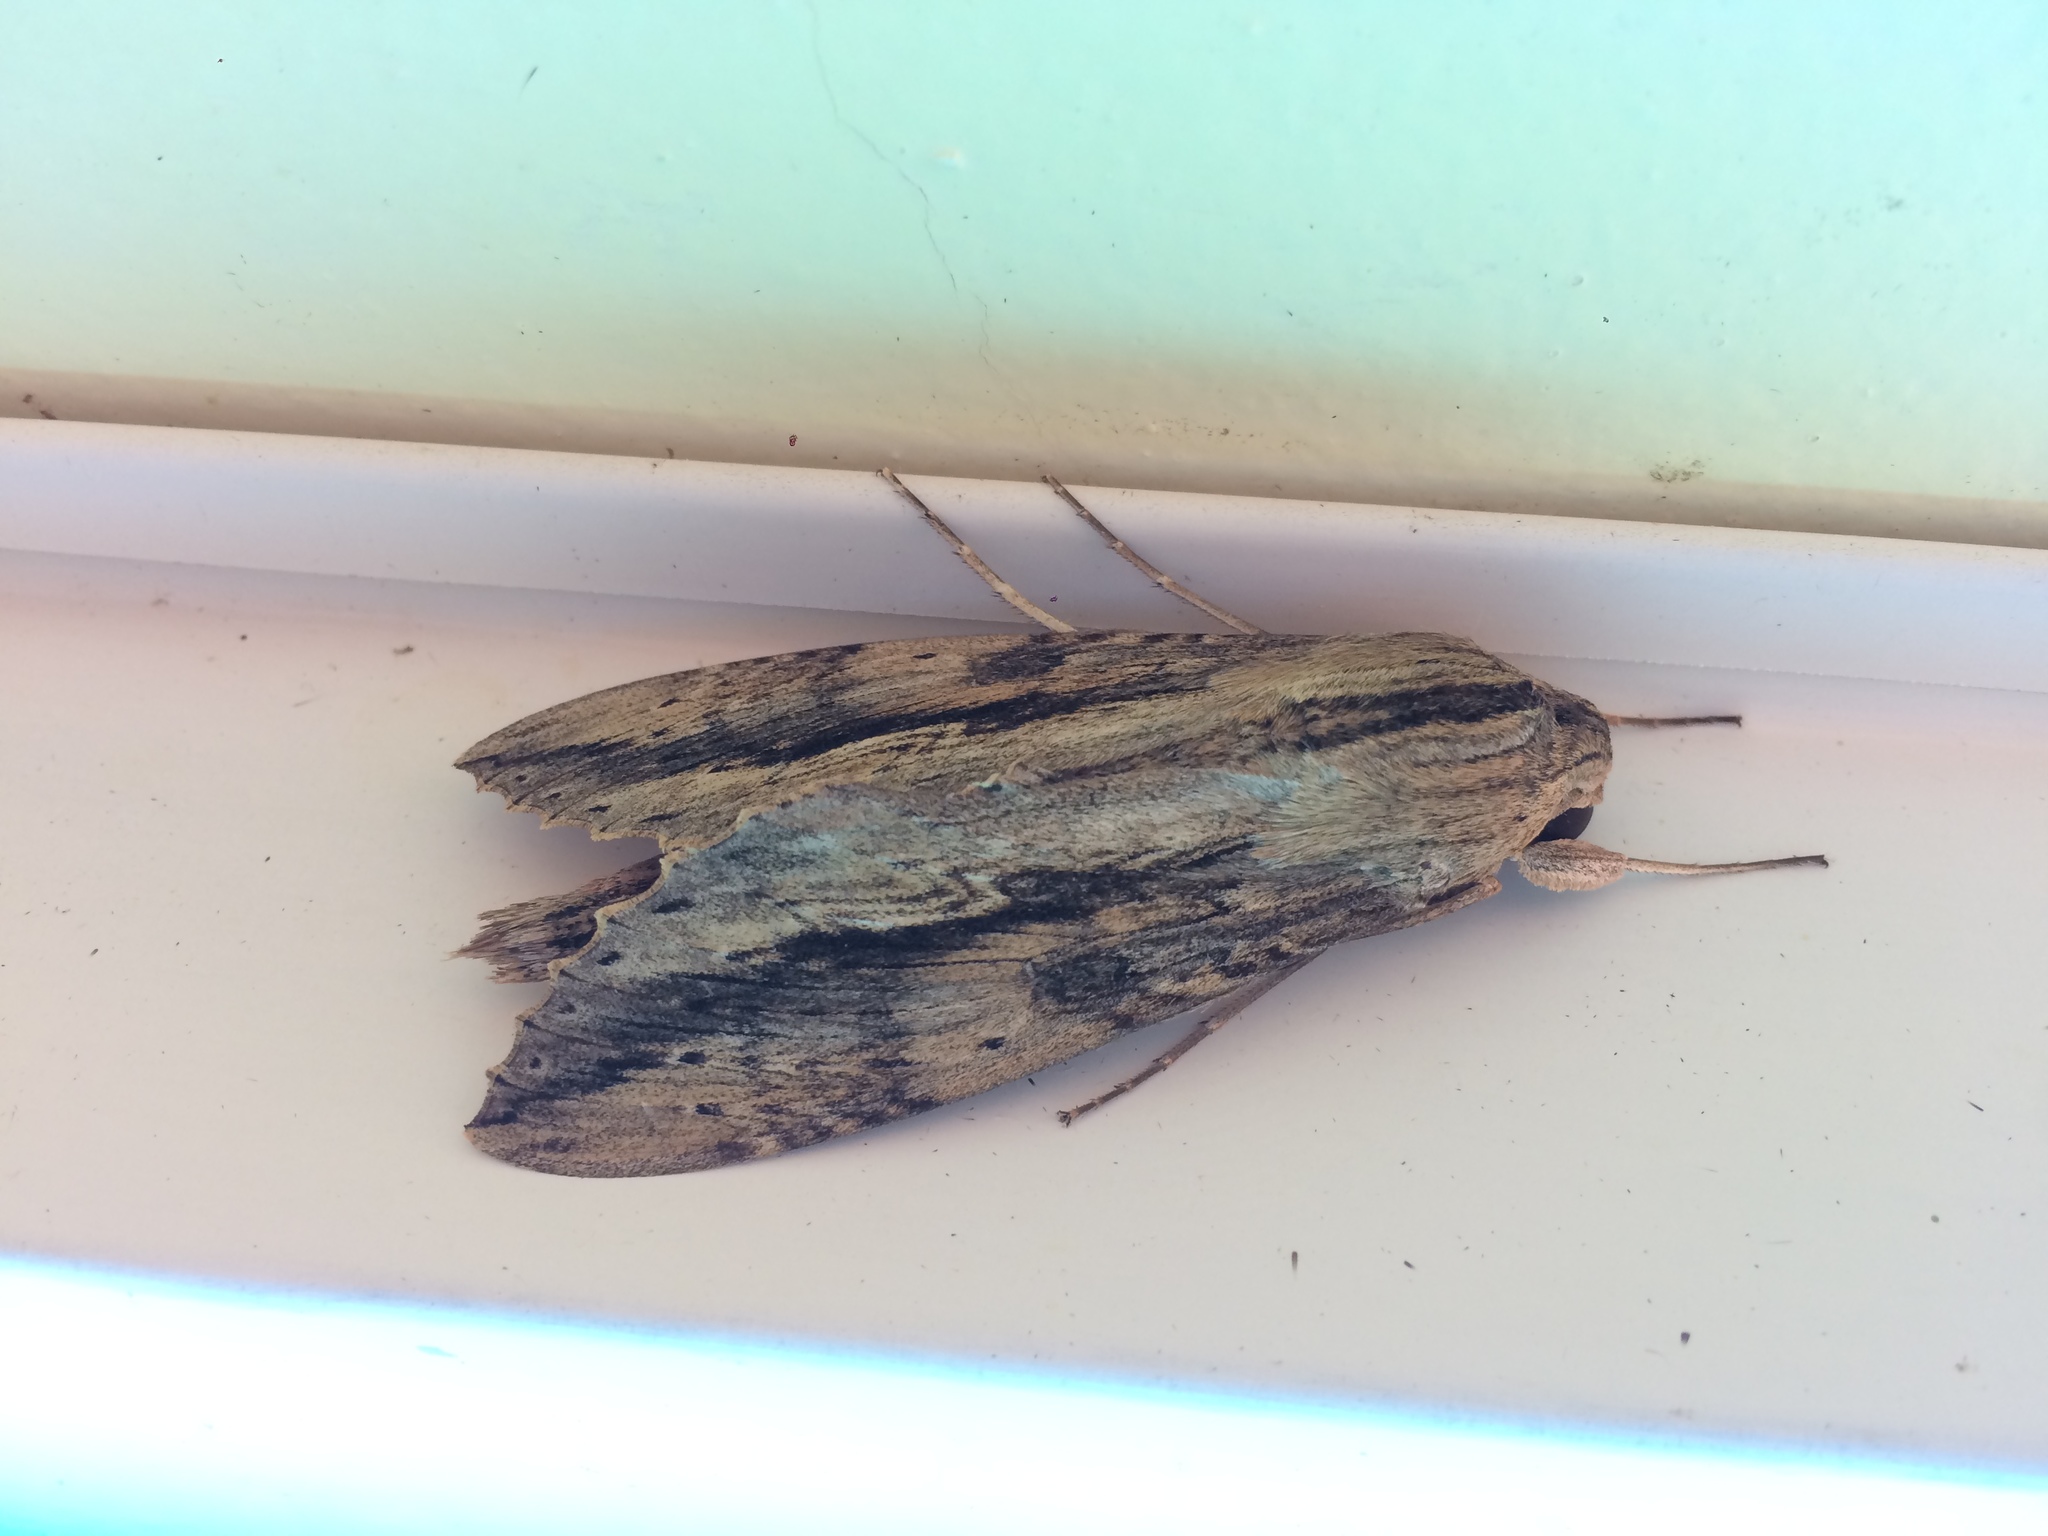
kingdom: Animalia
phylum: Arthropoda
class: Insecta
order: Lepidoptera
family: Sphingidae
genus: Erinnyis
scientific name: Erinnyis ello
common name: Ello sphinx
